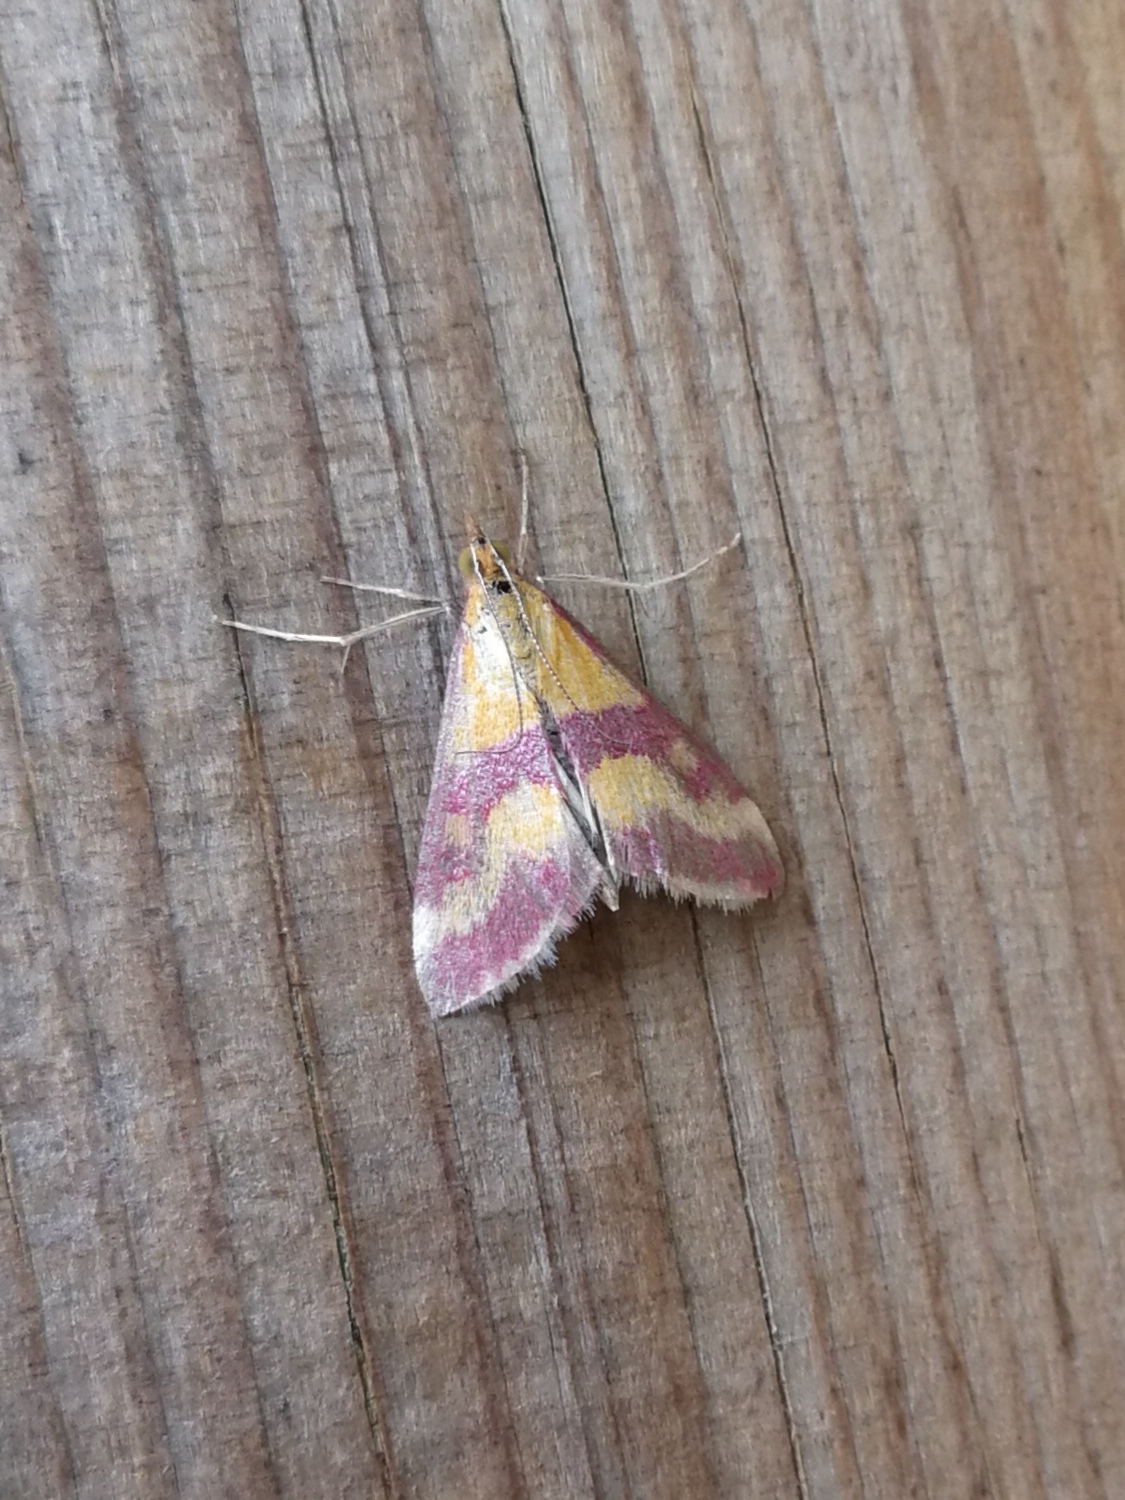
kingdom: Animalia
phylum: Arthropoda
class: Insecta
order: Lepidoptera
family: Crambidae
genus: Pyrausta
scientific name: Pyrausta sanguinalis
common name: Scarce crimson and gold
